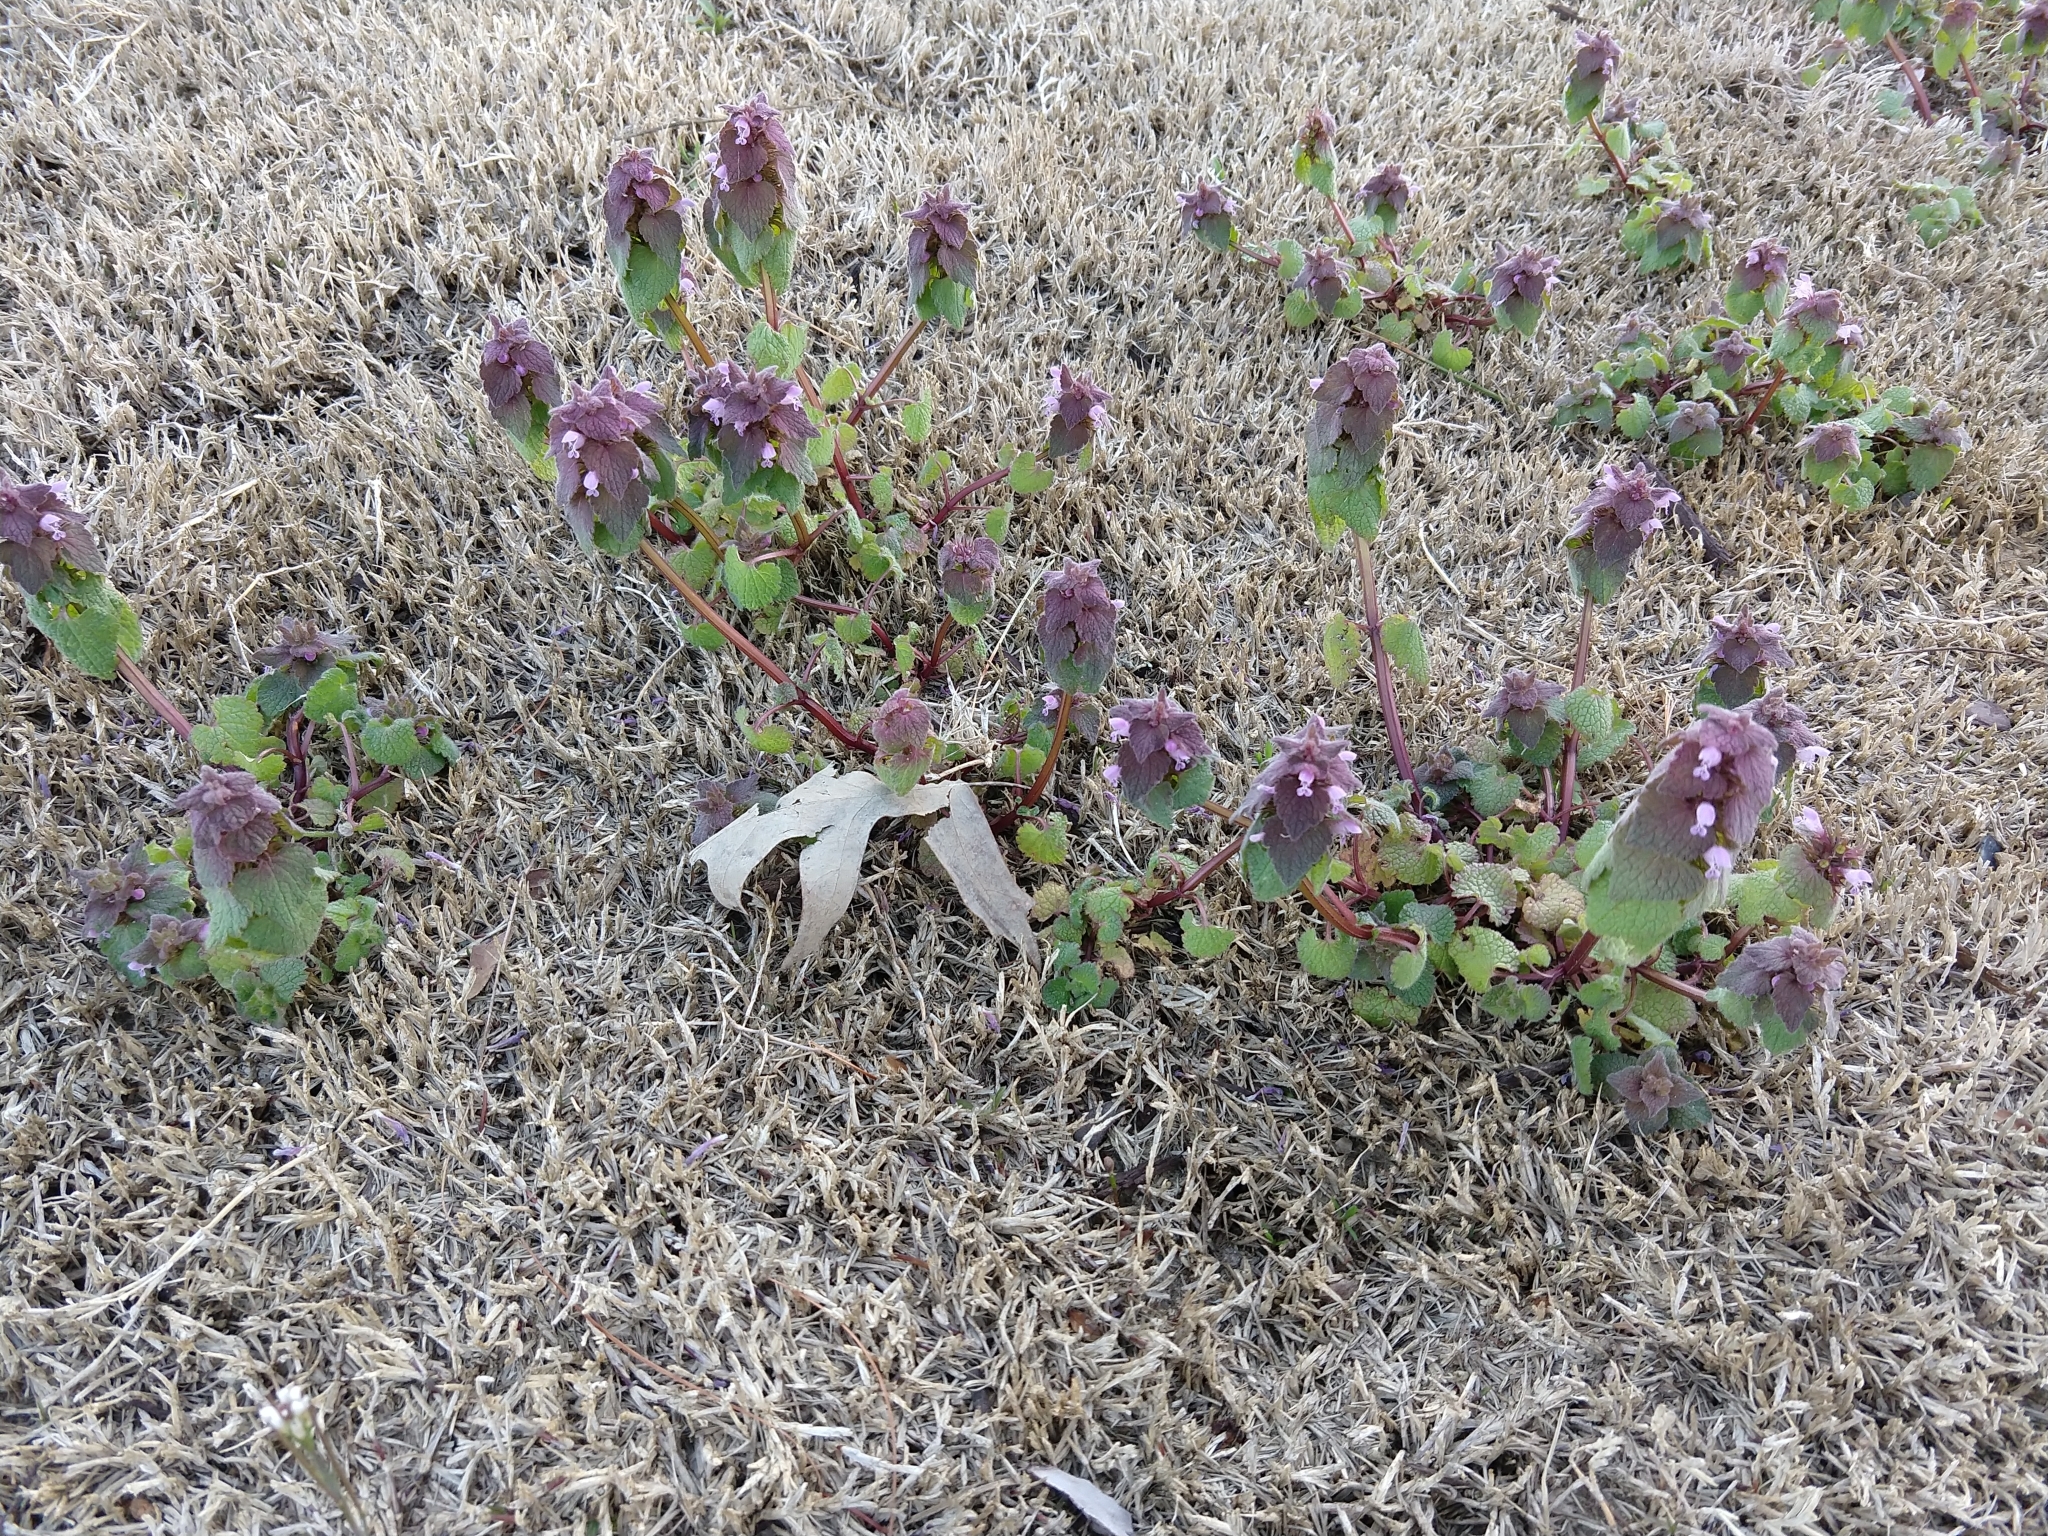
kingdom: Plantae
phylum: Tracheophyta
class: Magnoliopsida
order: Lamiales
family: Lamiaceae
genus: Lamium
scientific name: Lamium purpureum
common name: Red dead-nettle
